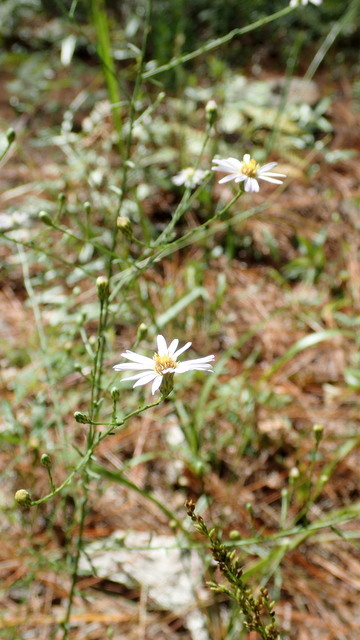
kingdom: Plantae
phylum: Tracheophyta
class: Magnoliopsida
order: Asterales
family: Asteraceae
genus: Symphyotrichum
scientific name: Symphyotrichum dumosum
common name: Bushy aster
